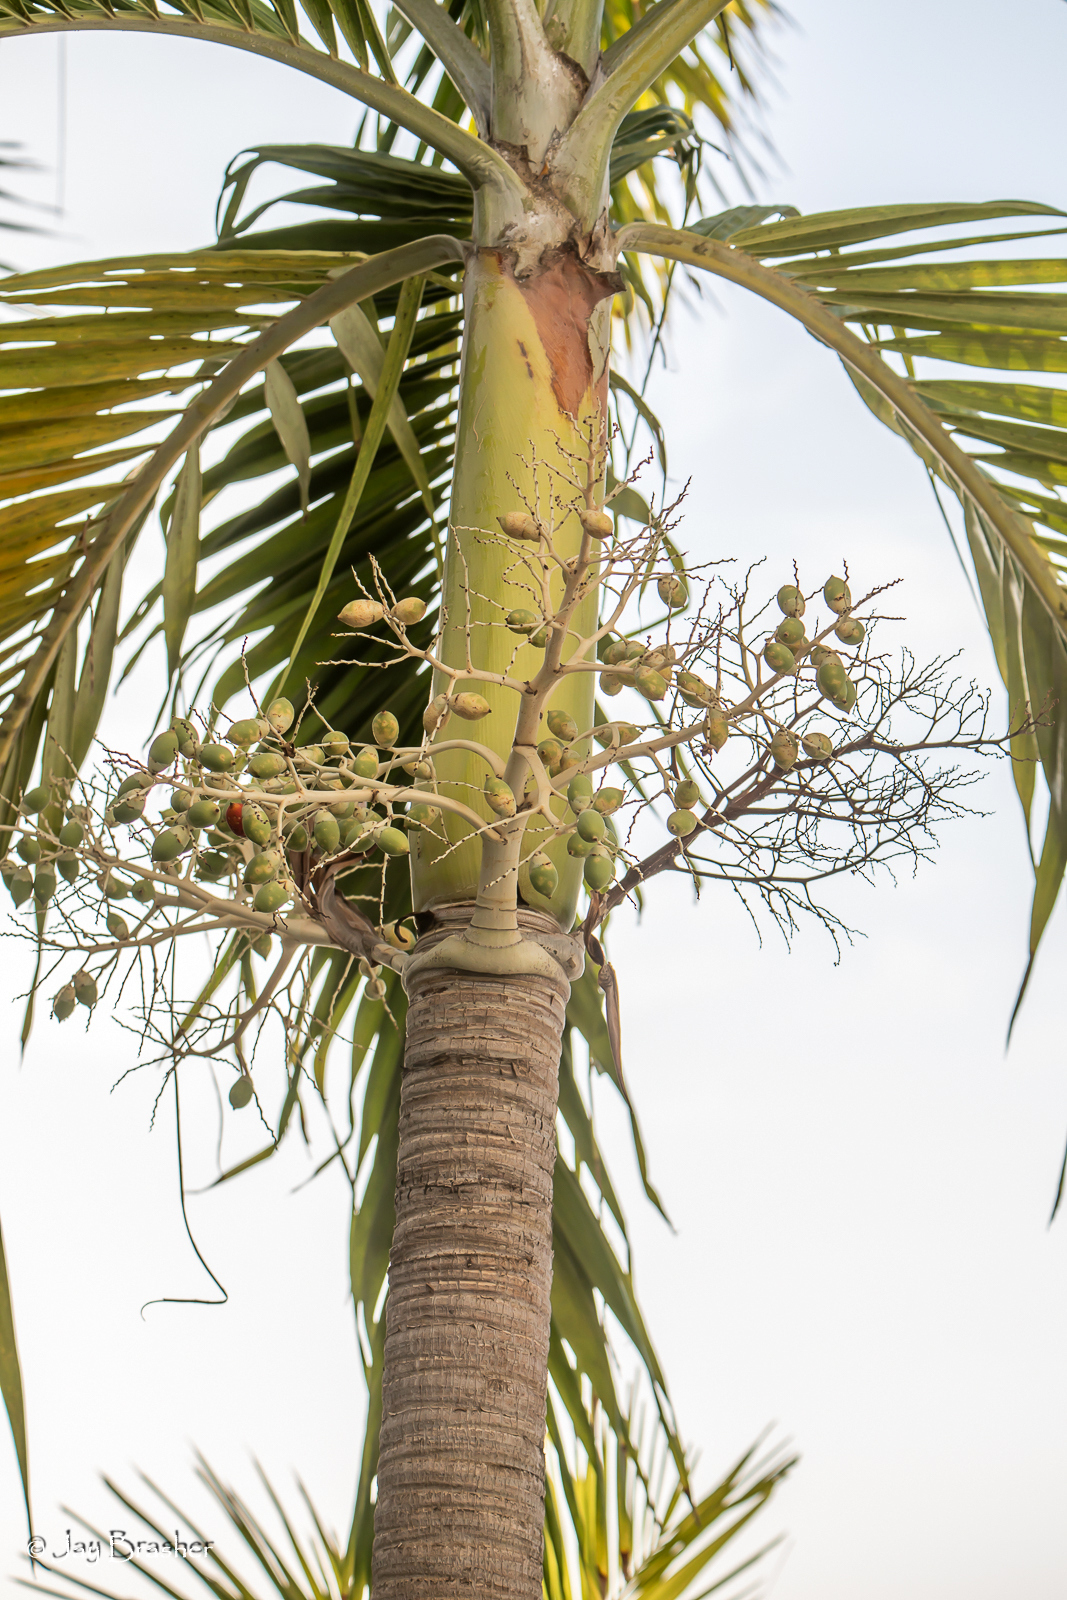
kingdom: Plantae
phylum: Tracheophyta
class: Liliopsida
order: Arecales
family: Arecaceae
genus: Adonidia
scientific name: Adonidia merrillii
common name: Manila palm
